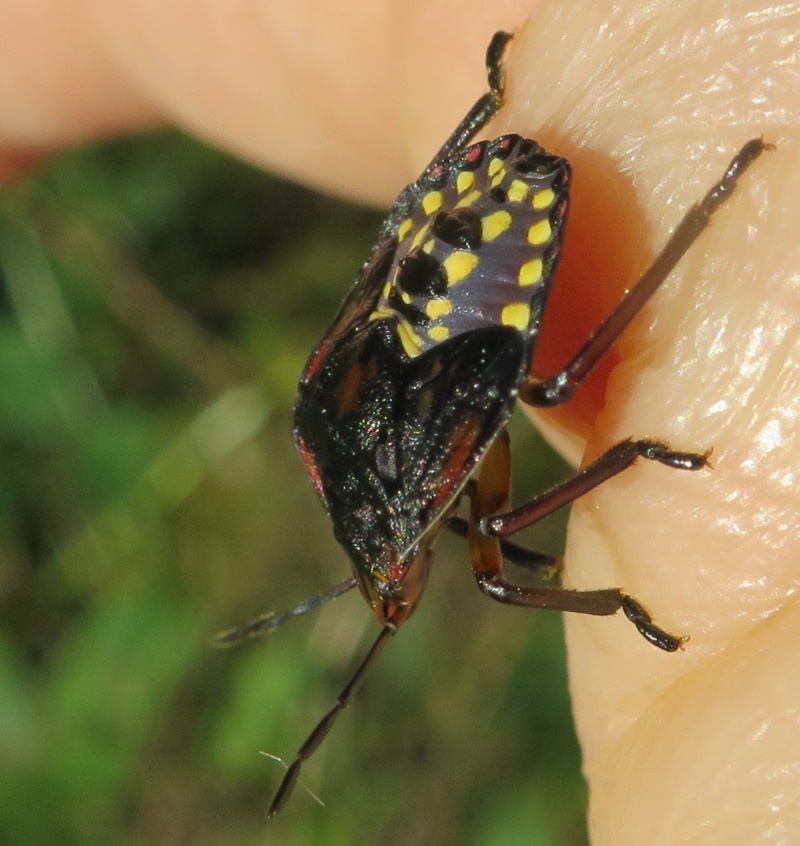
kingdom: Animalia
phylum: Arthropoda
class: Insecta
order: Hemiptera
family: Pentatomidae
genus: Nezara
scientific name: Nezara viridula
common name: Southern green stink bug
